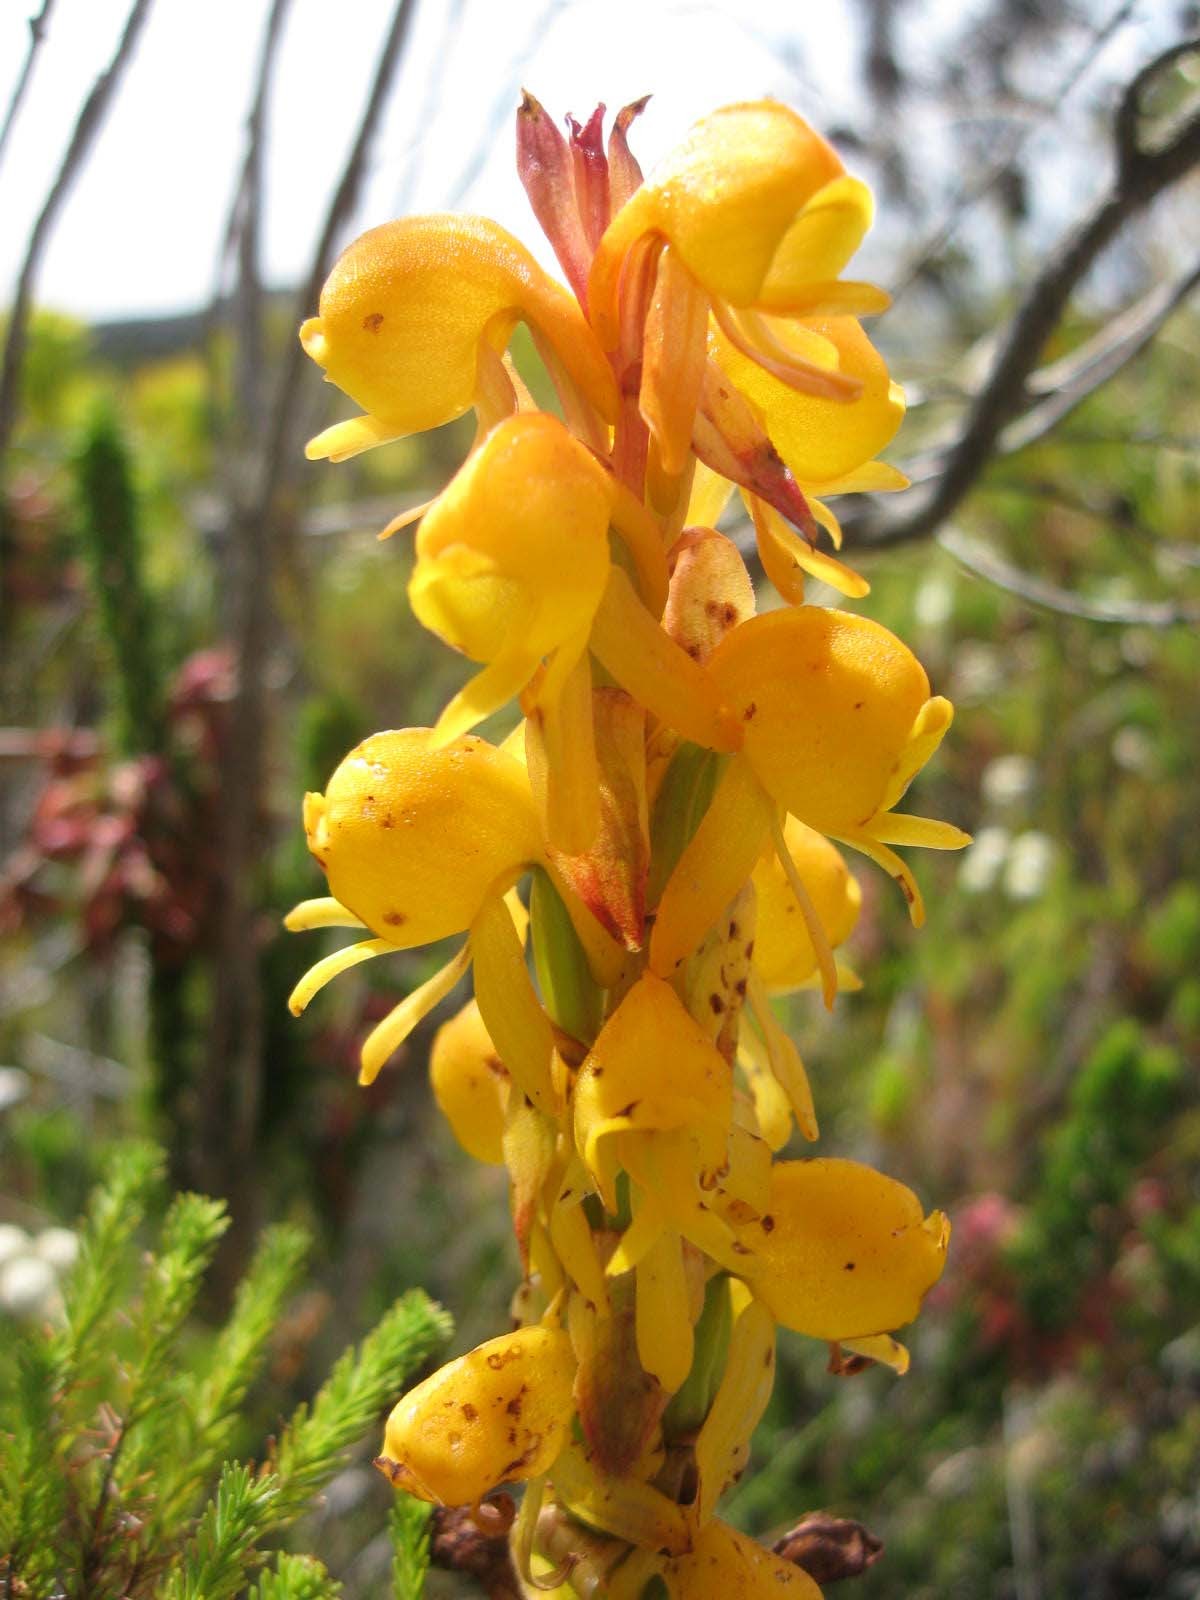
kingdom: Plantae
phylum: Tracheophyta
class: Liliopsida
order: Asparagales
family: Orchidaceae
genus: Satyrium
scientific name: Satyrium coriifolium
